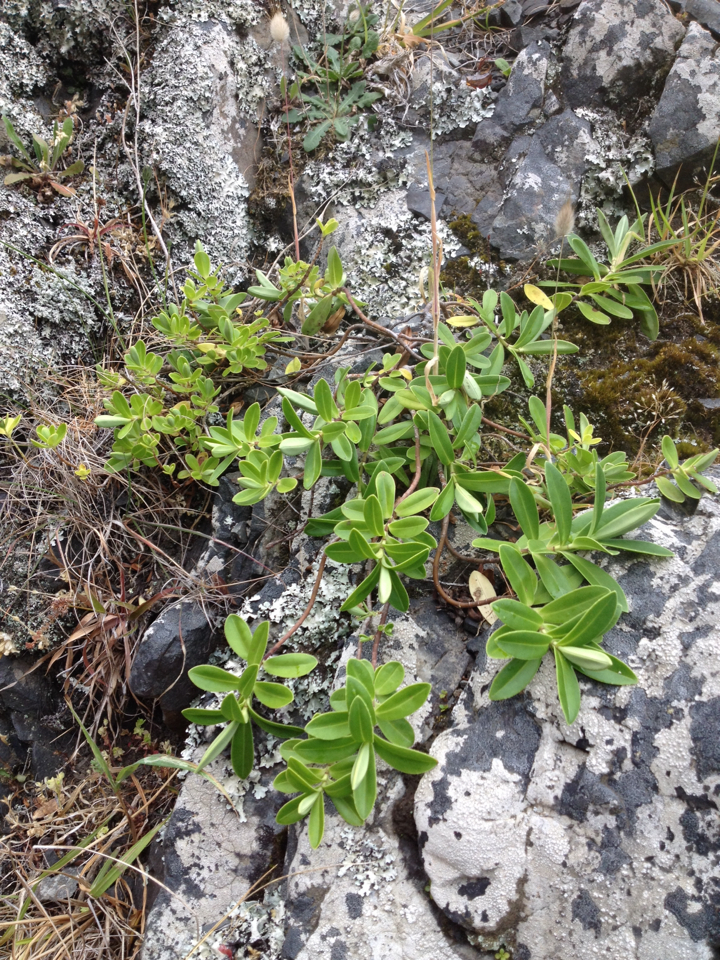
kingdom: Plantae
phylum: Tracheophyta
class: Magnoliopsida
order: Lamiales
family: Plantaginaceae
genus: Veronica
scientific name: Veronica elliptica
